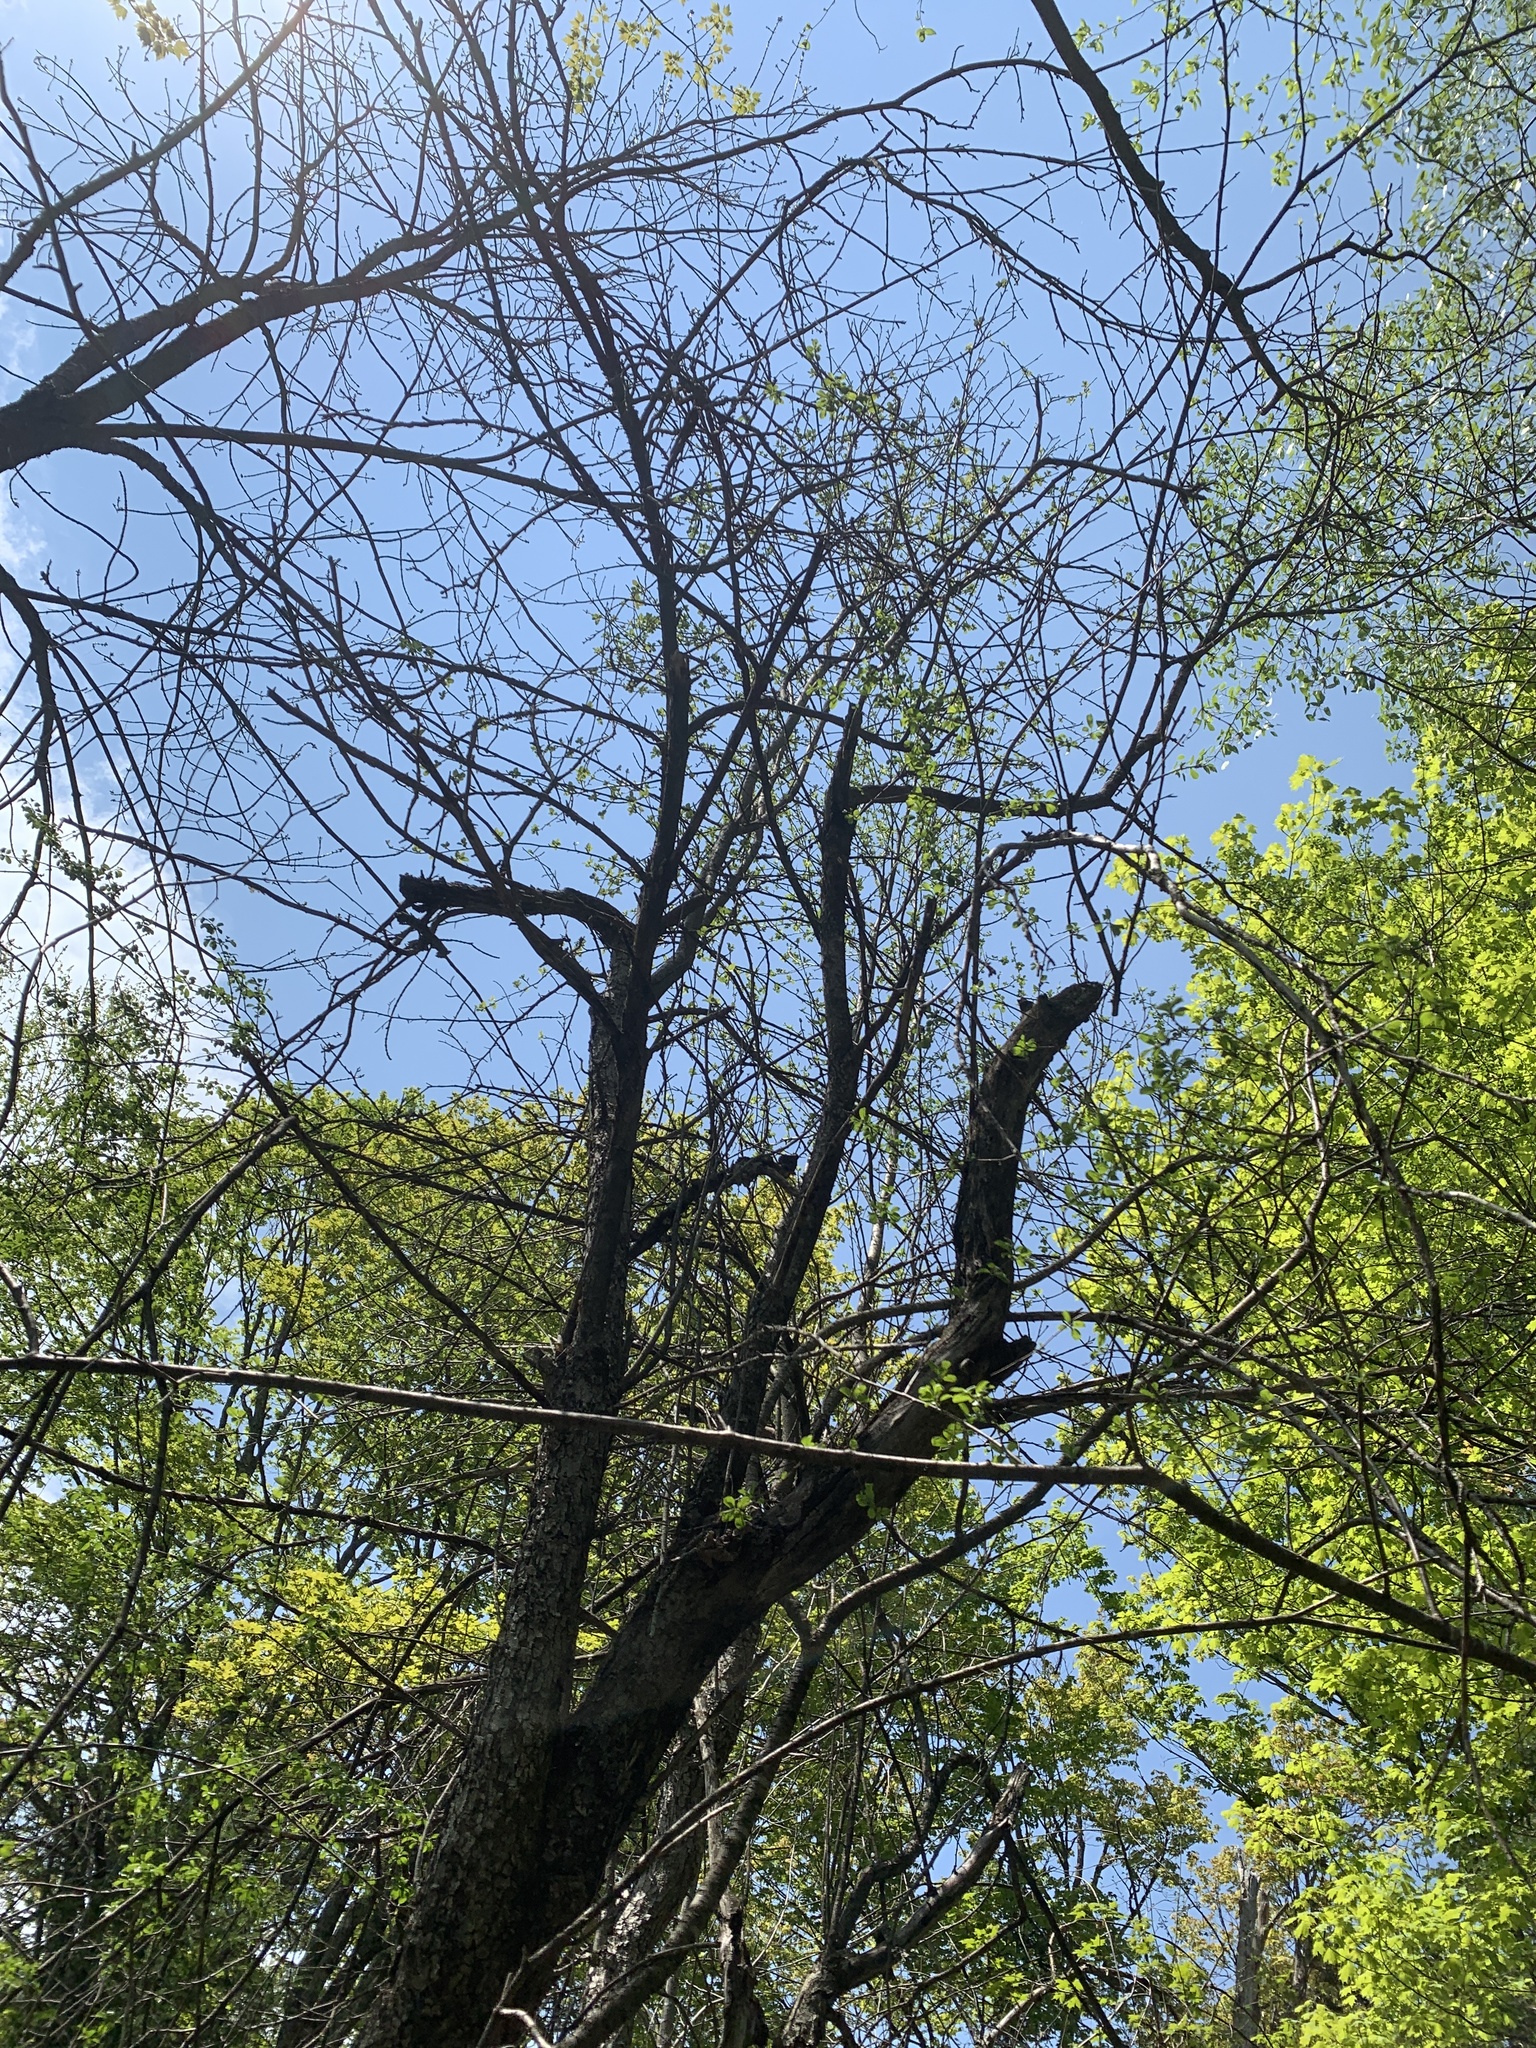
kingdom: Plantae
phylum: Tracheophyta
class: Magnoliopsida
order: Rosales
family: Rhamnaceae
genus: Rhamnus
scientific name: Rhamnus cathartica
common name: Common buckthorn
